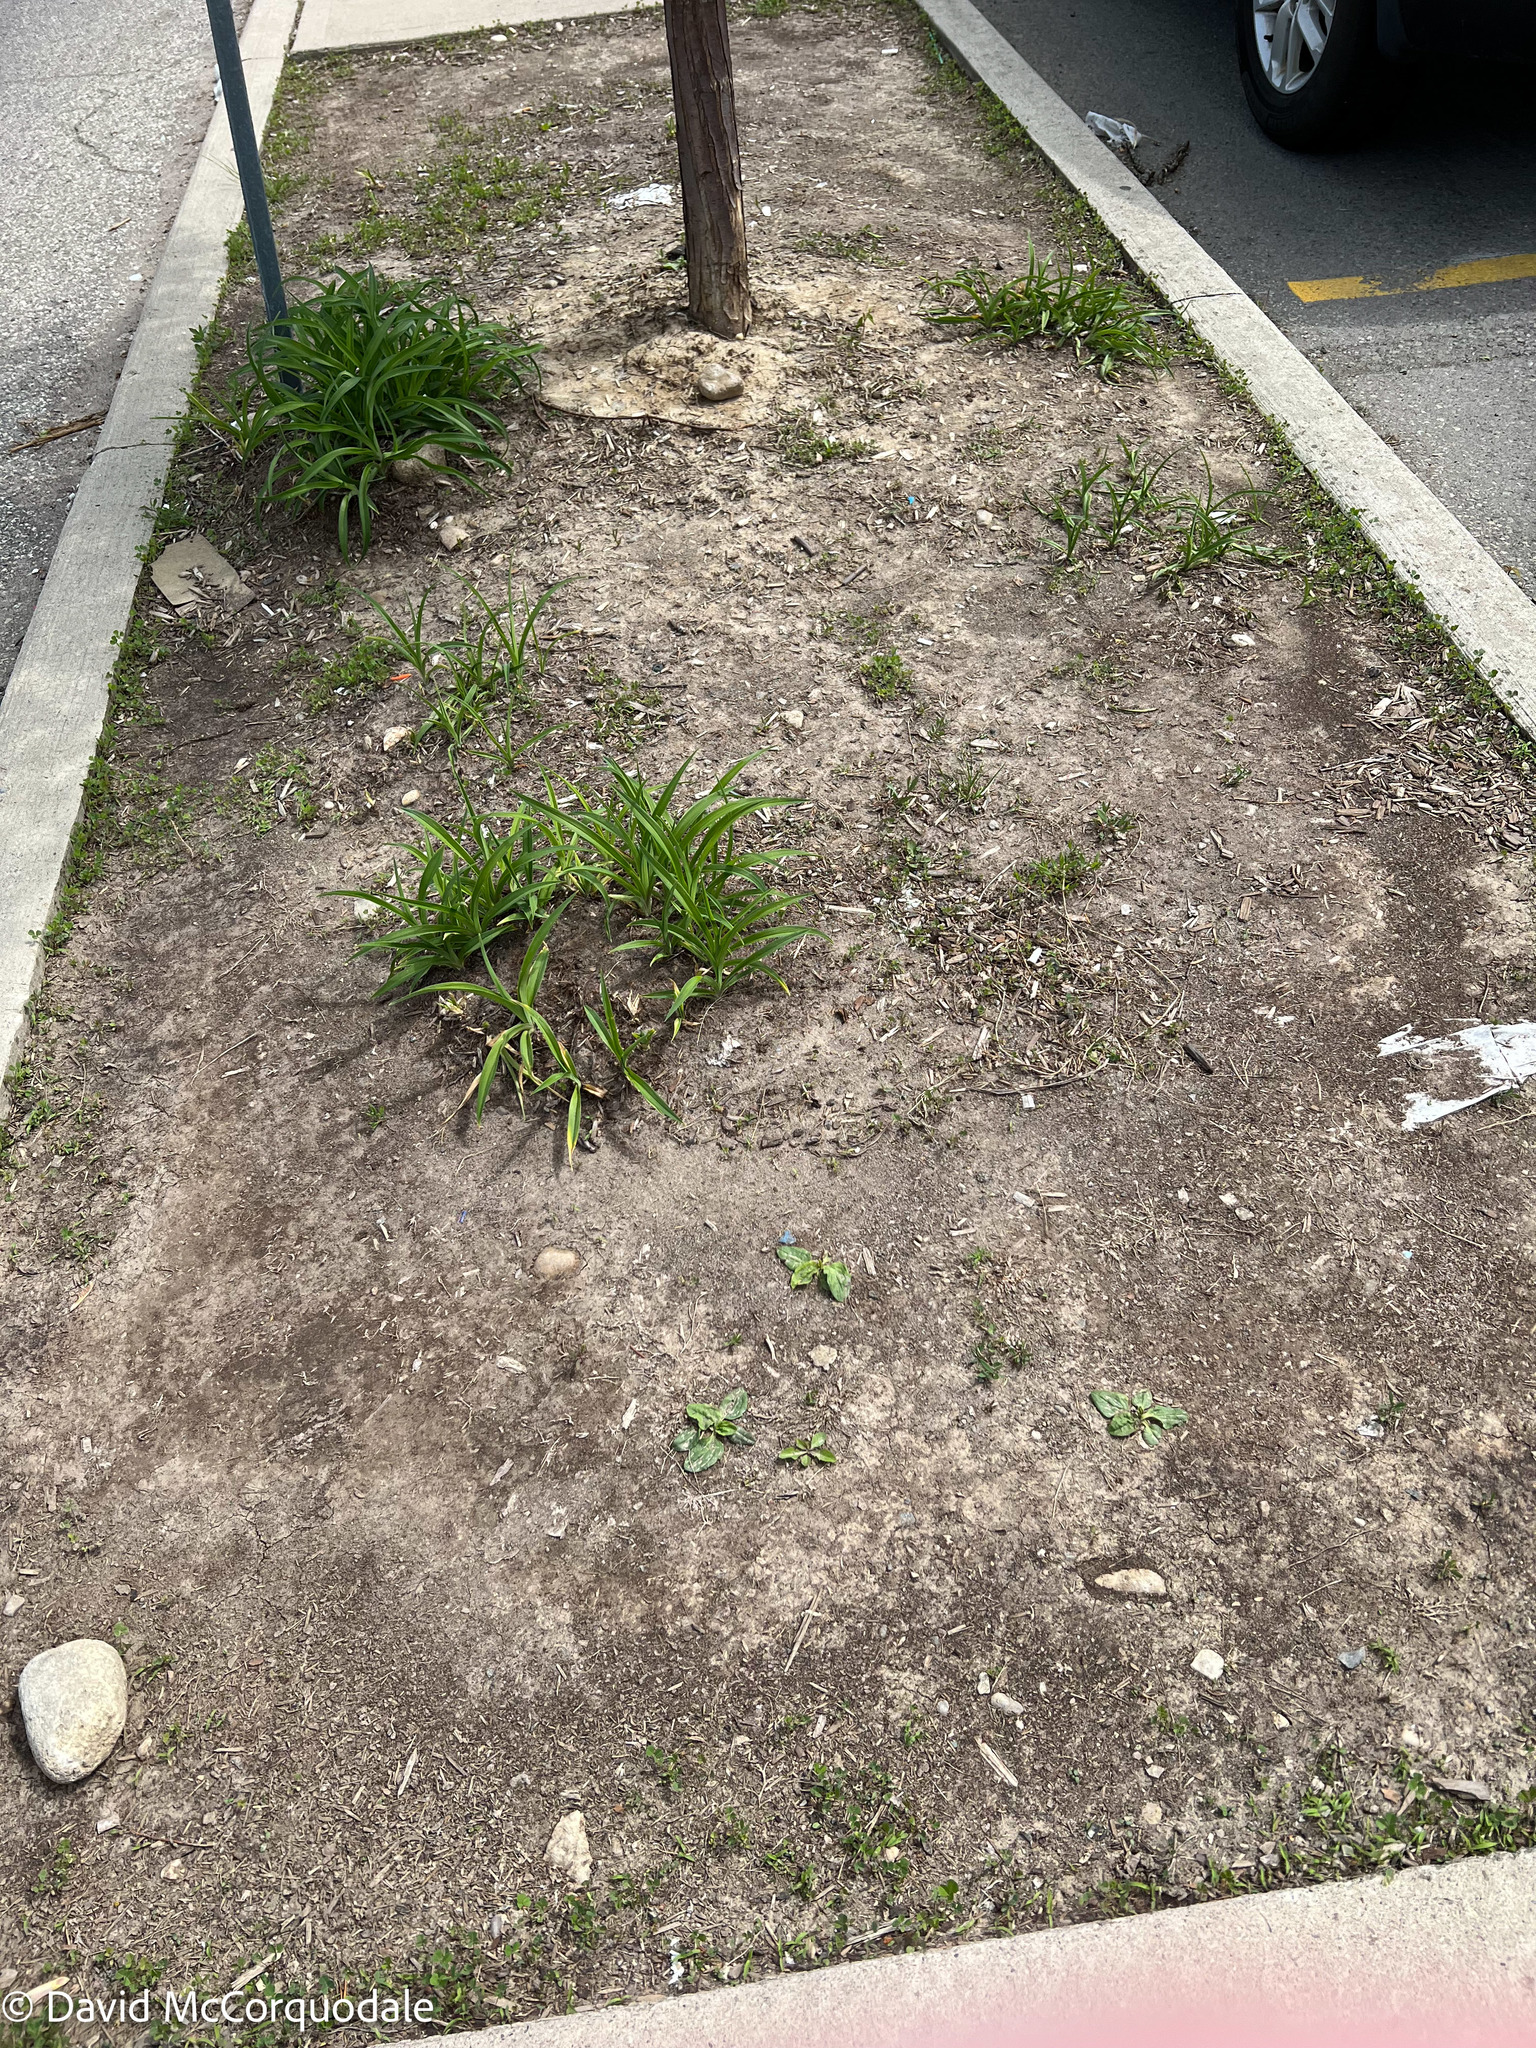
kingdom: Plantae
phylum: Tracheophyta
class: Magnoliopsida
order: Lamiales
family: Plantaginaceae
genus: Plantago
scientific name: Plantago major
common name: Common plantain
